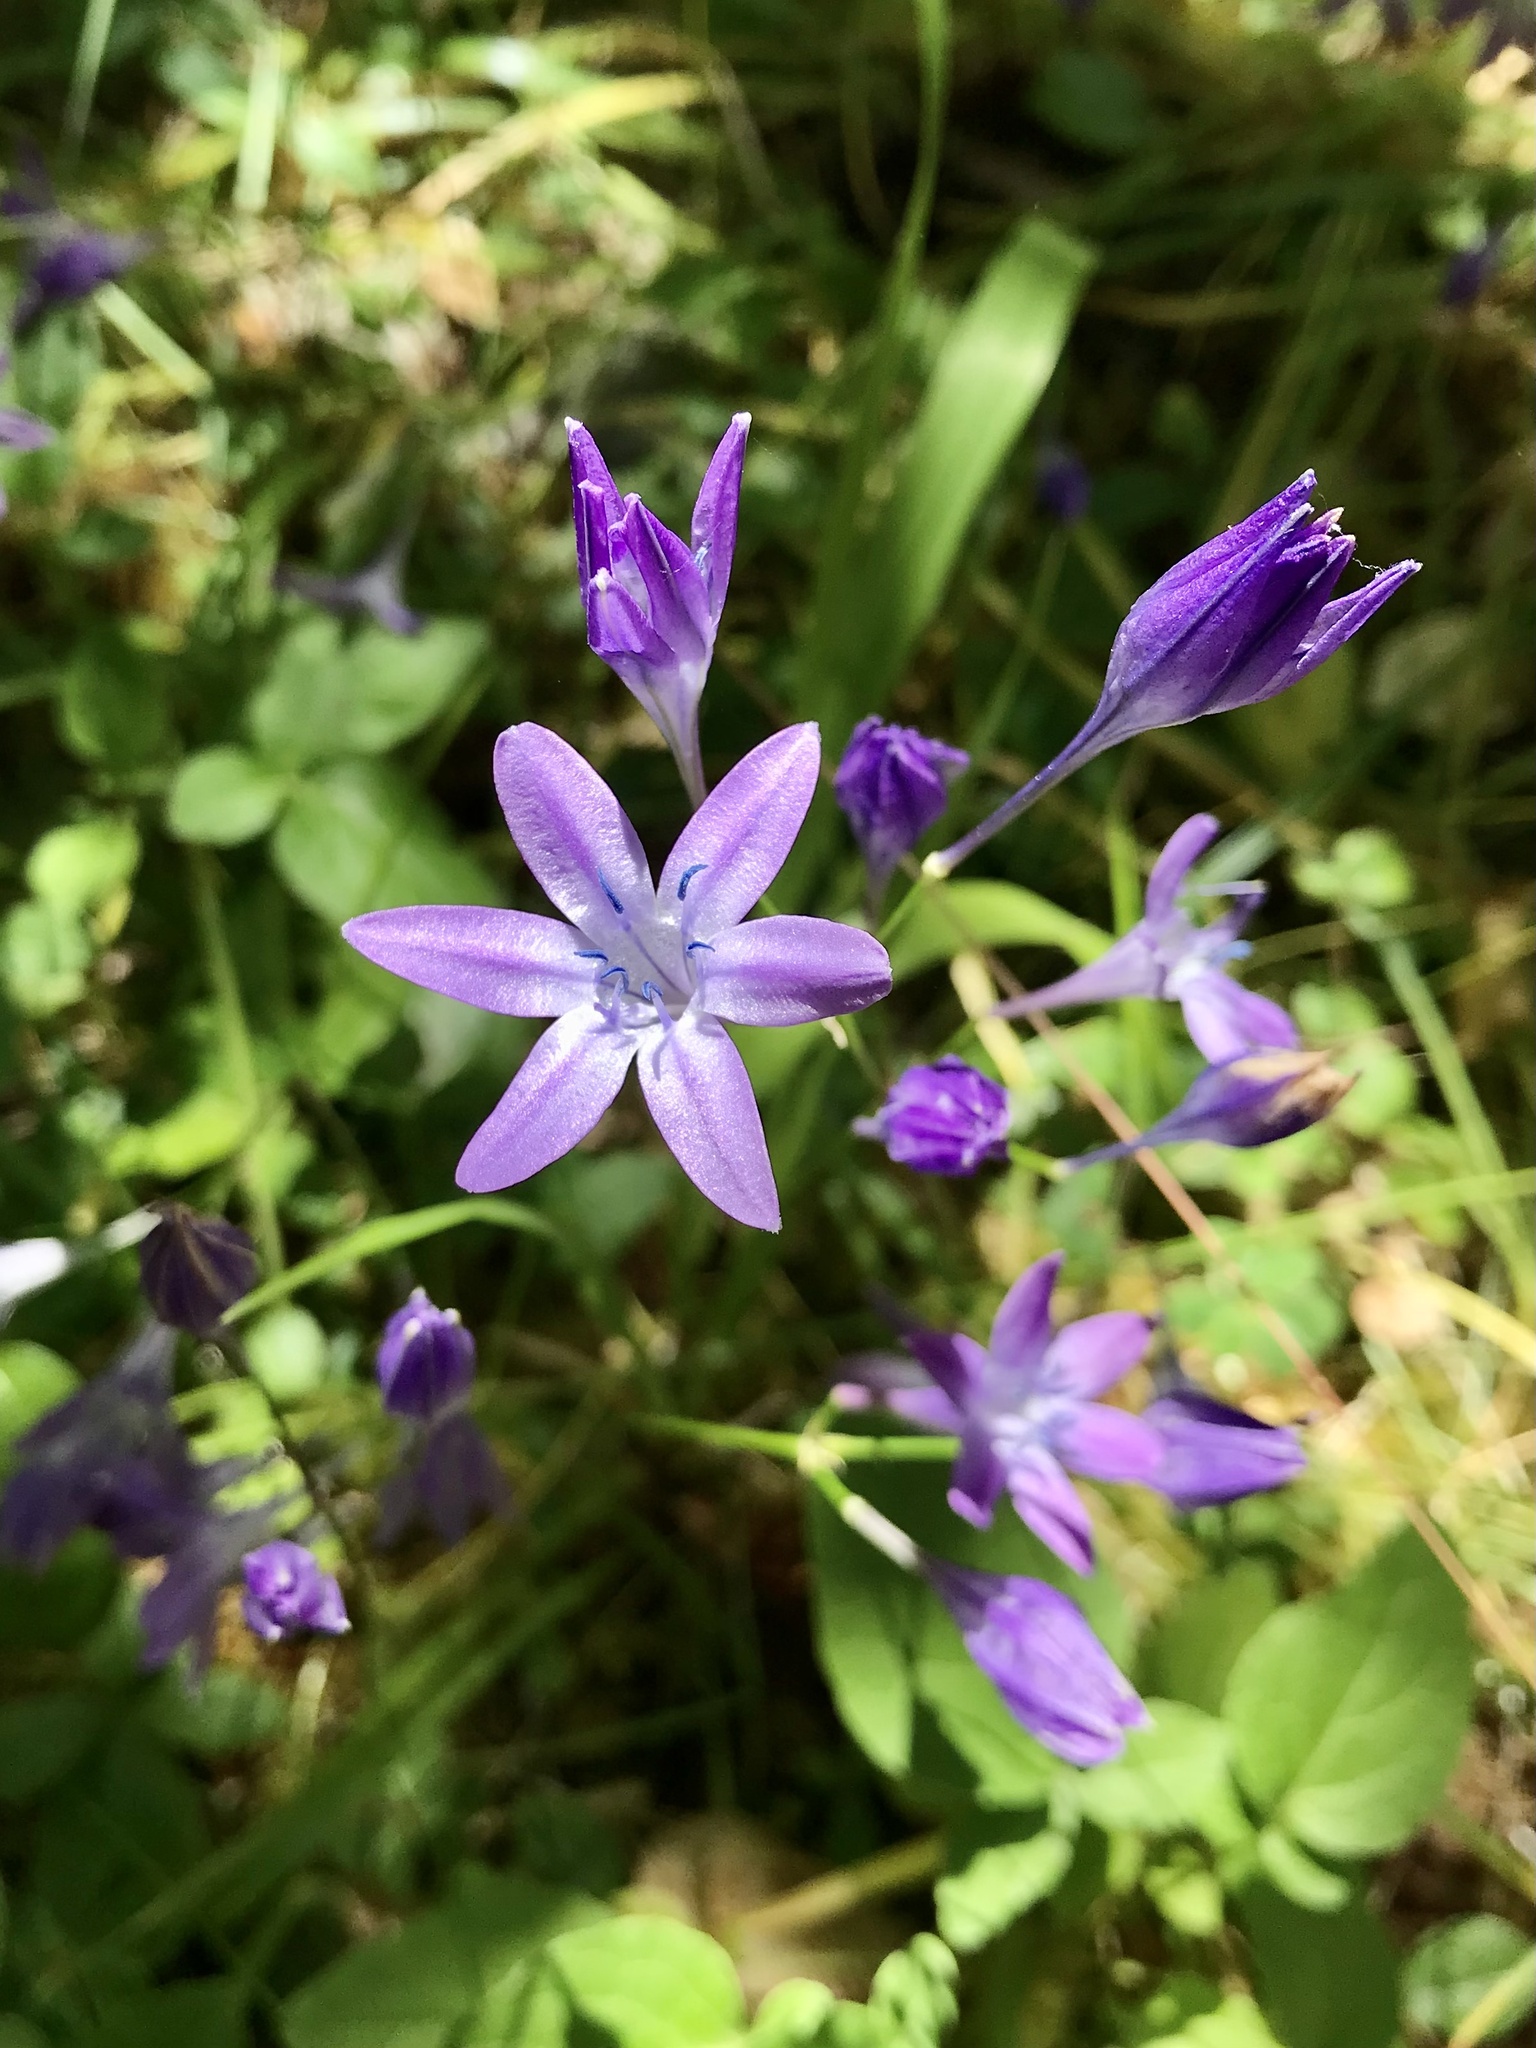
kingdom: Plantae
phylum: Tracheophyta
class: Liliopsida
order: Asparagales
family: Asparagaceae
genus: Triteleia
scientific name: Triteleia bridgesii
